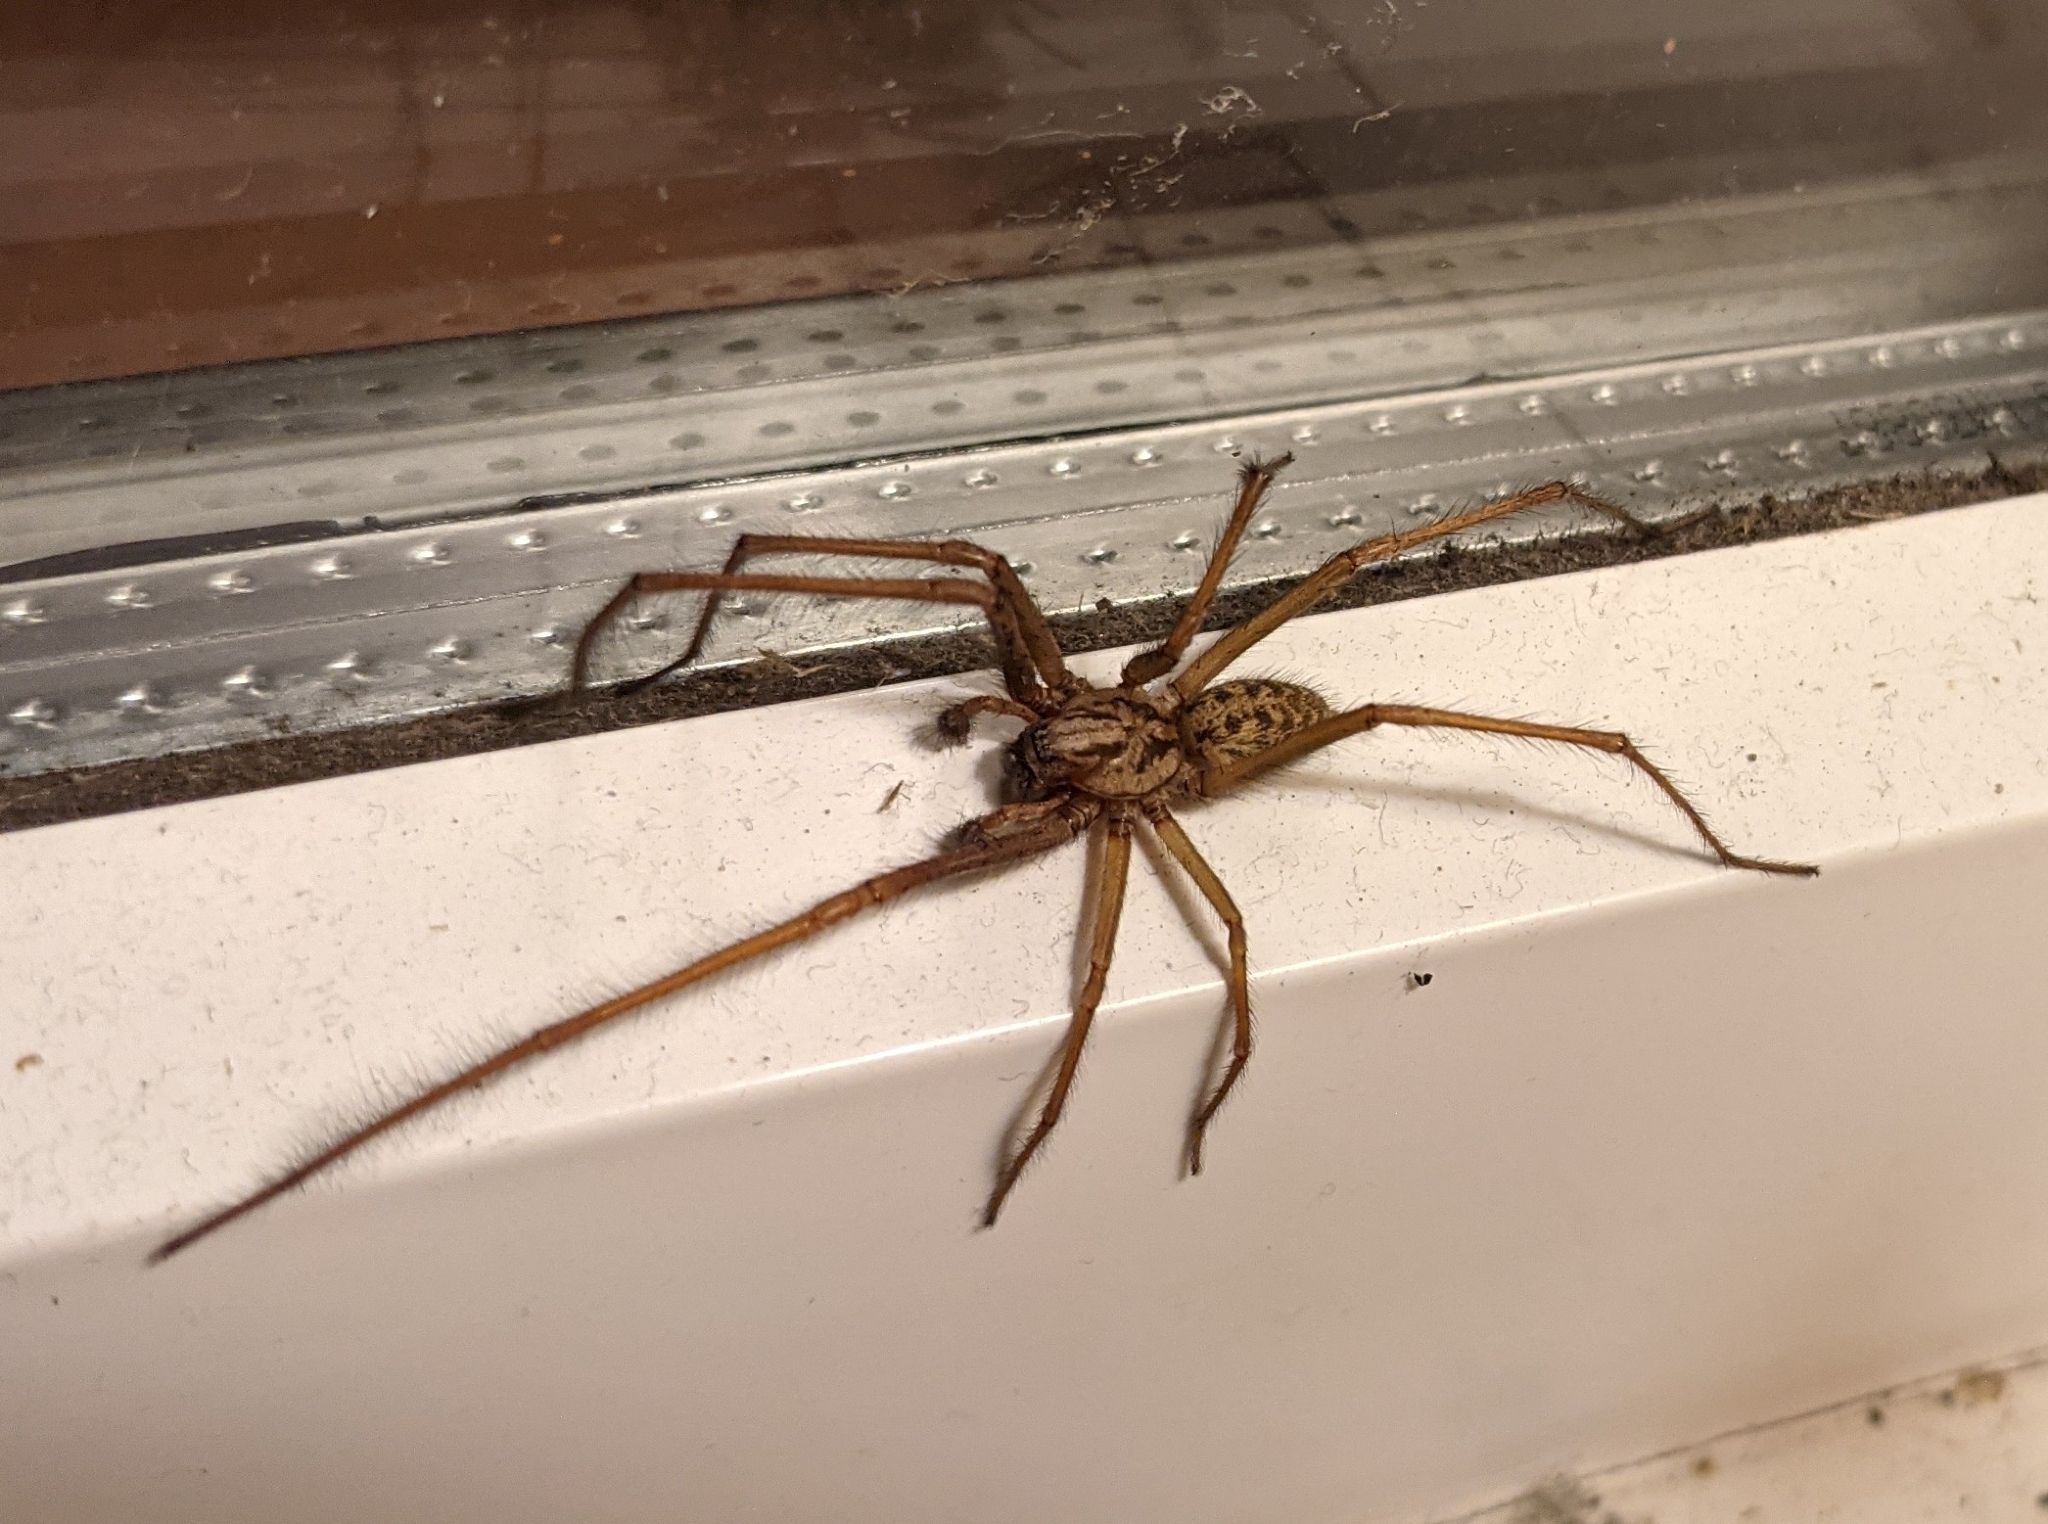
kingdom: Animalia
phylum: Arthropoda
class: Arachnida
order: Araneae
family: Agelenidae
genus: Eratigena
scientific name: Eratigena
